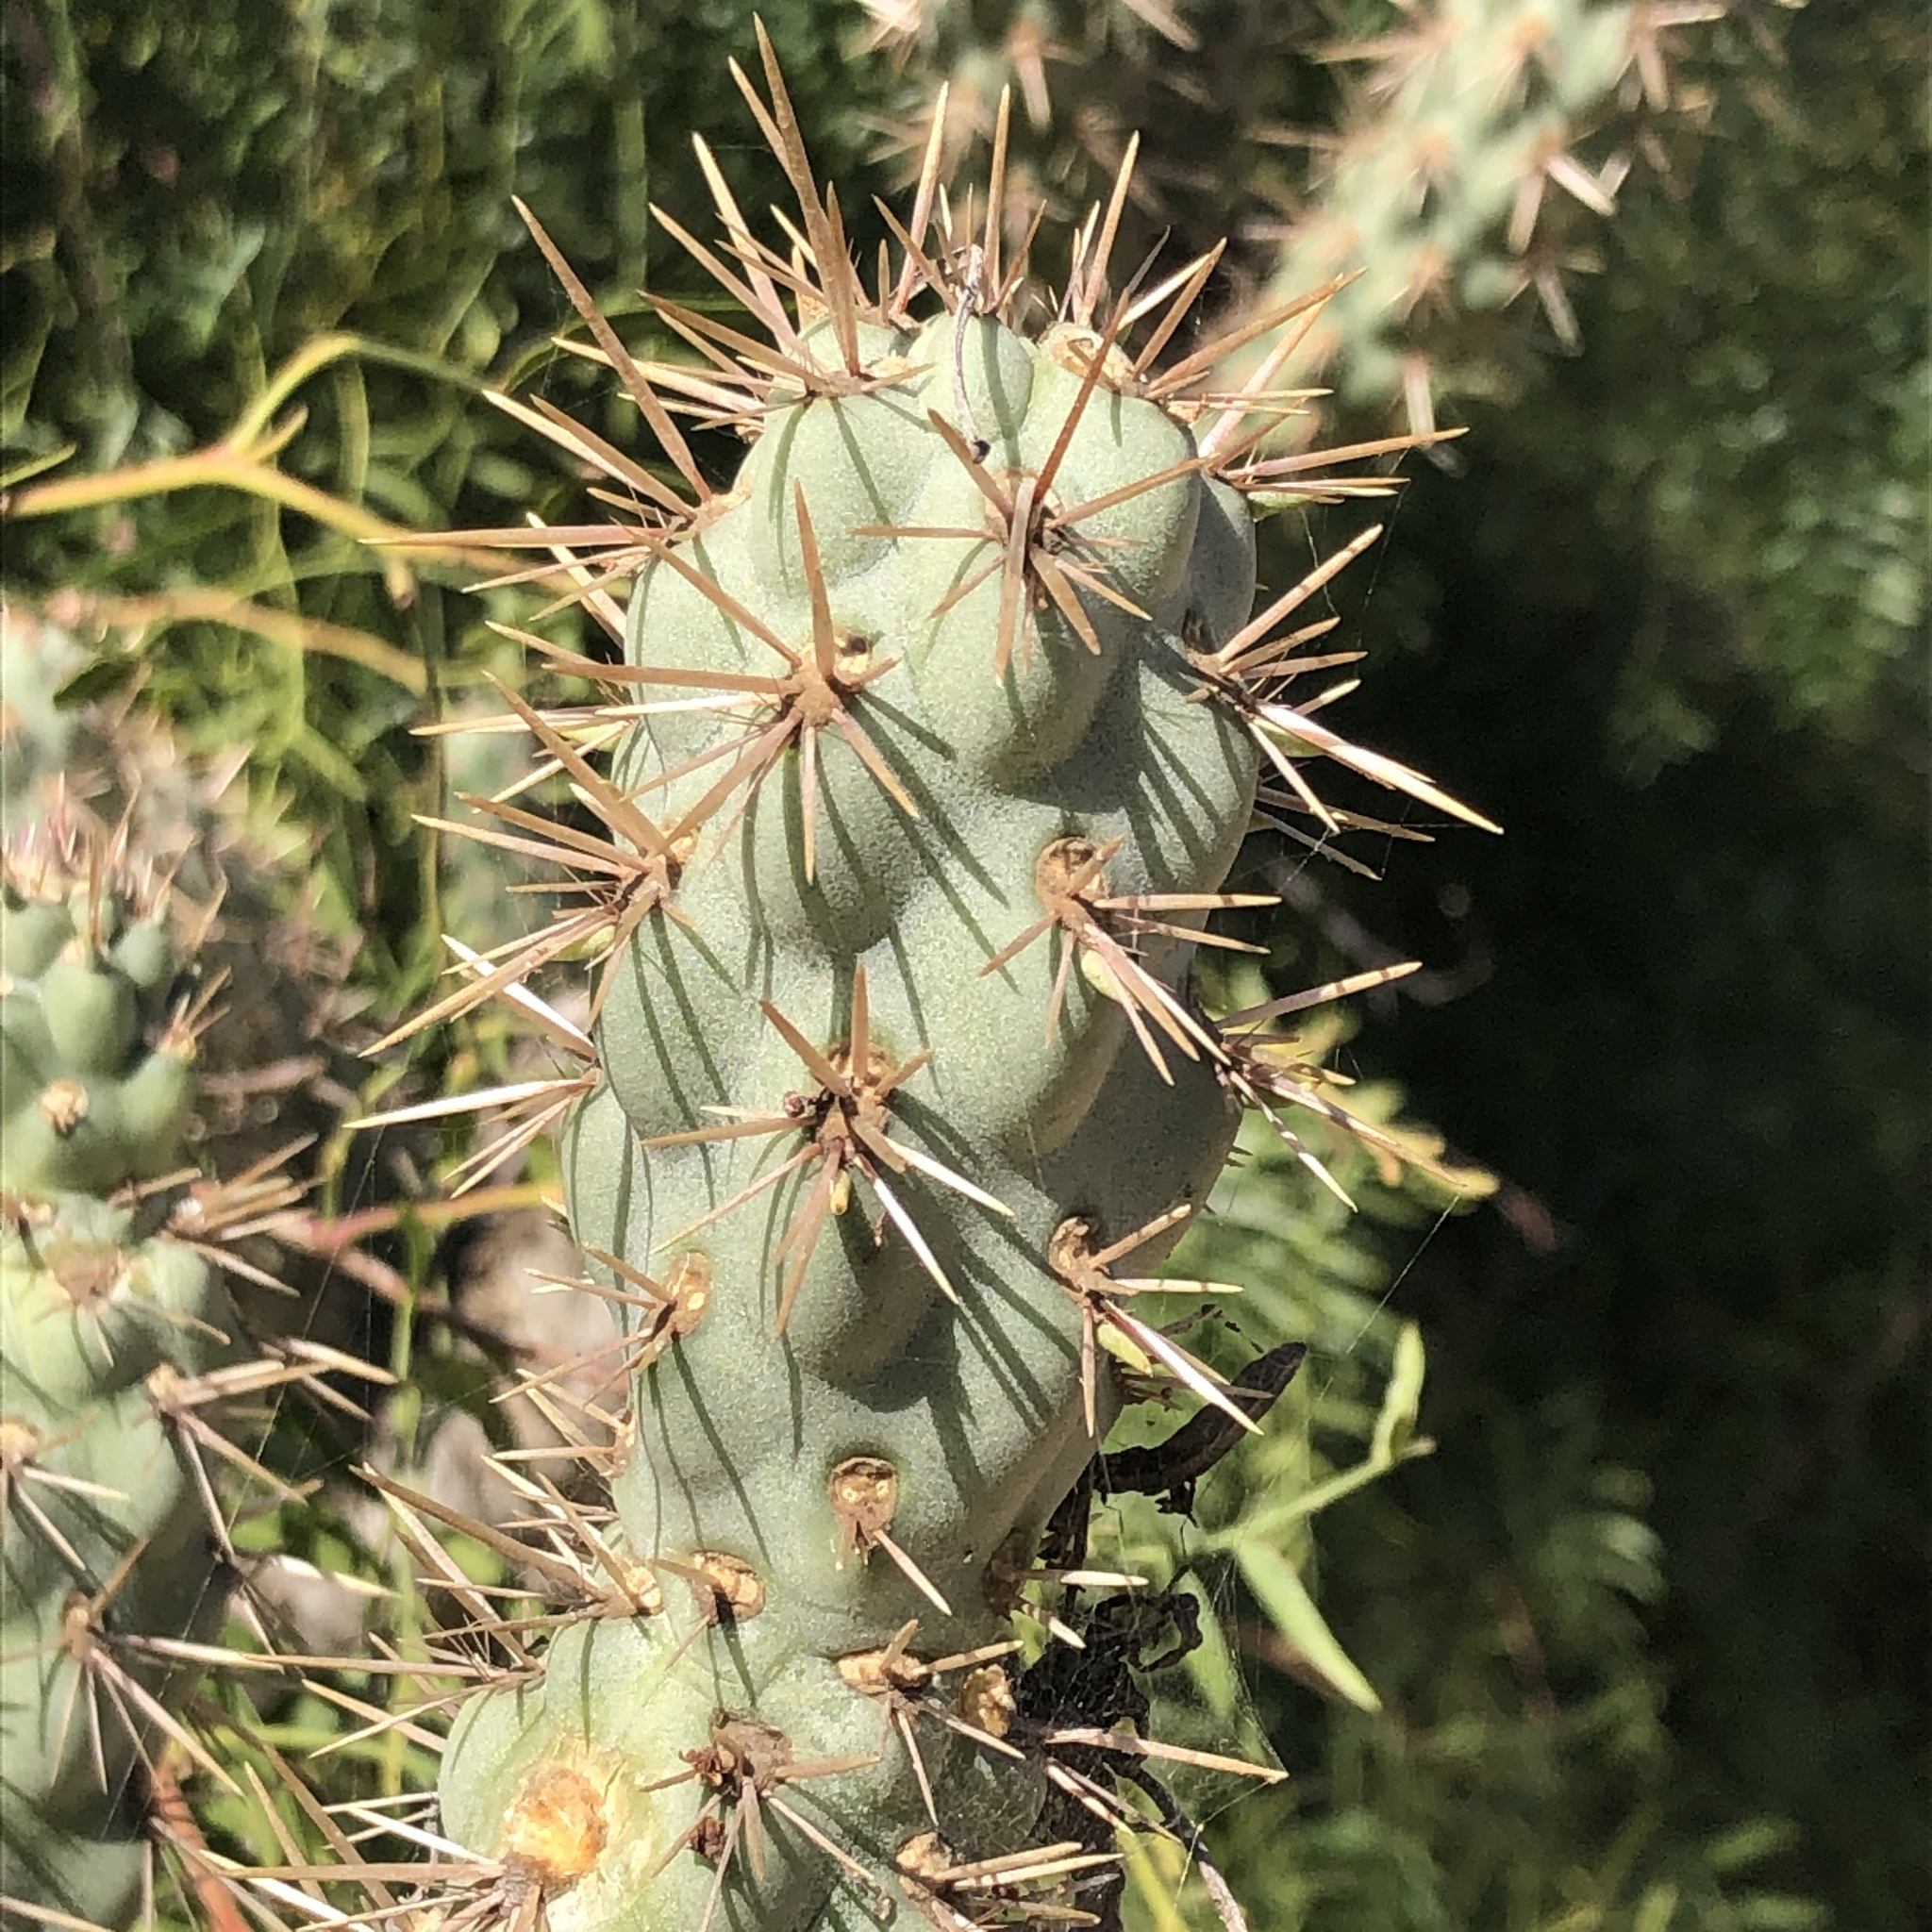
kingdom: Plantae
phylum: Tracheophyta
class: Magnoliopsida
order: Caryophyllales
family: Cactaceae
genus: Cylindropuntia
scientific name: Cylindropuntia prolifera
